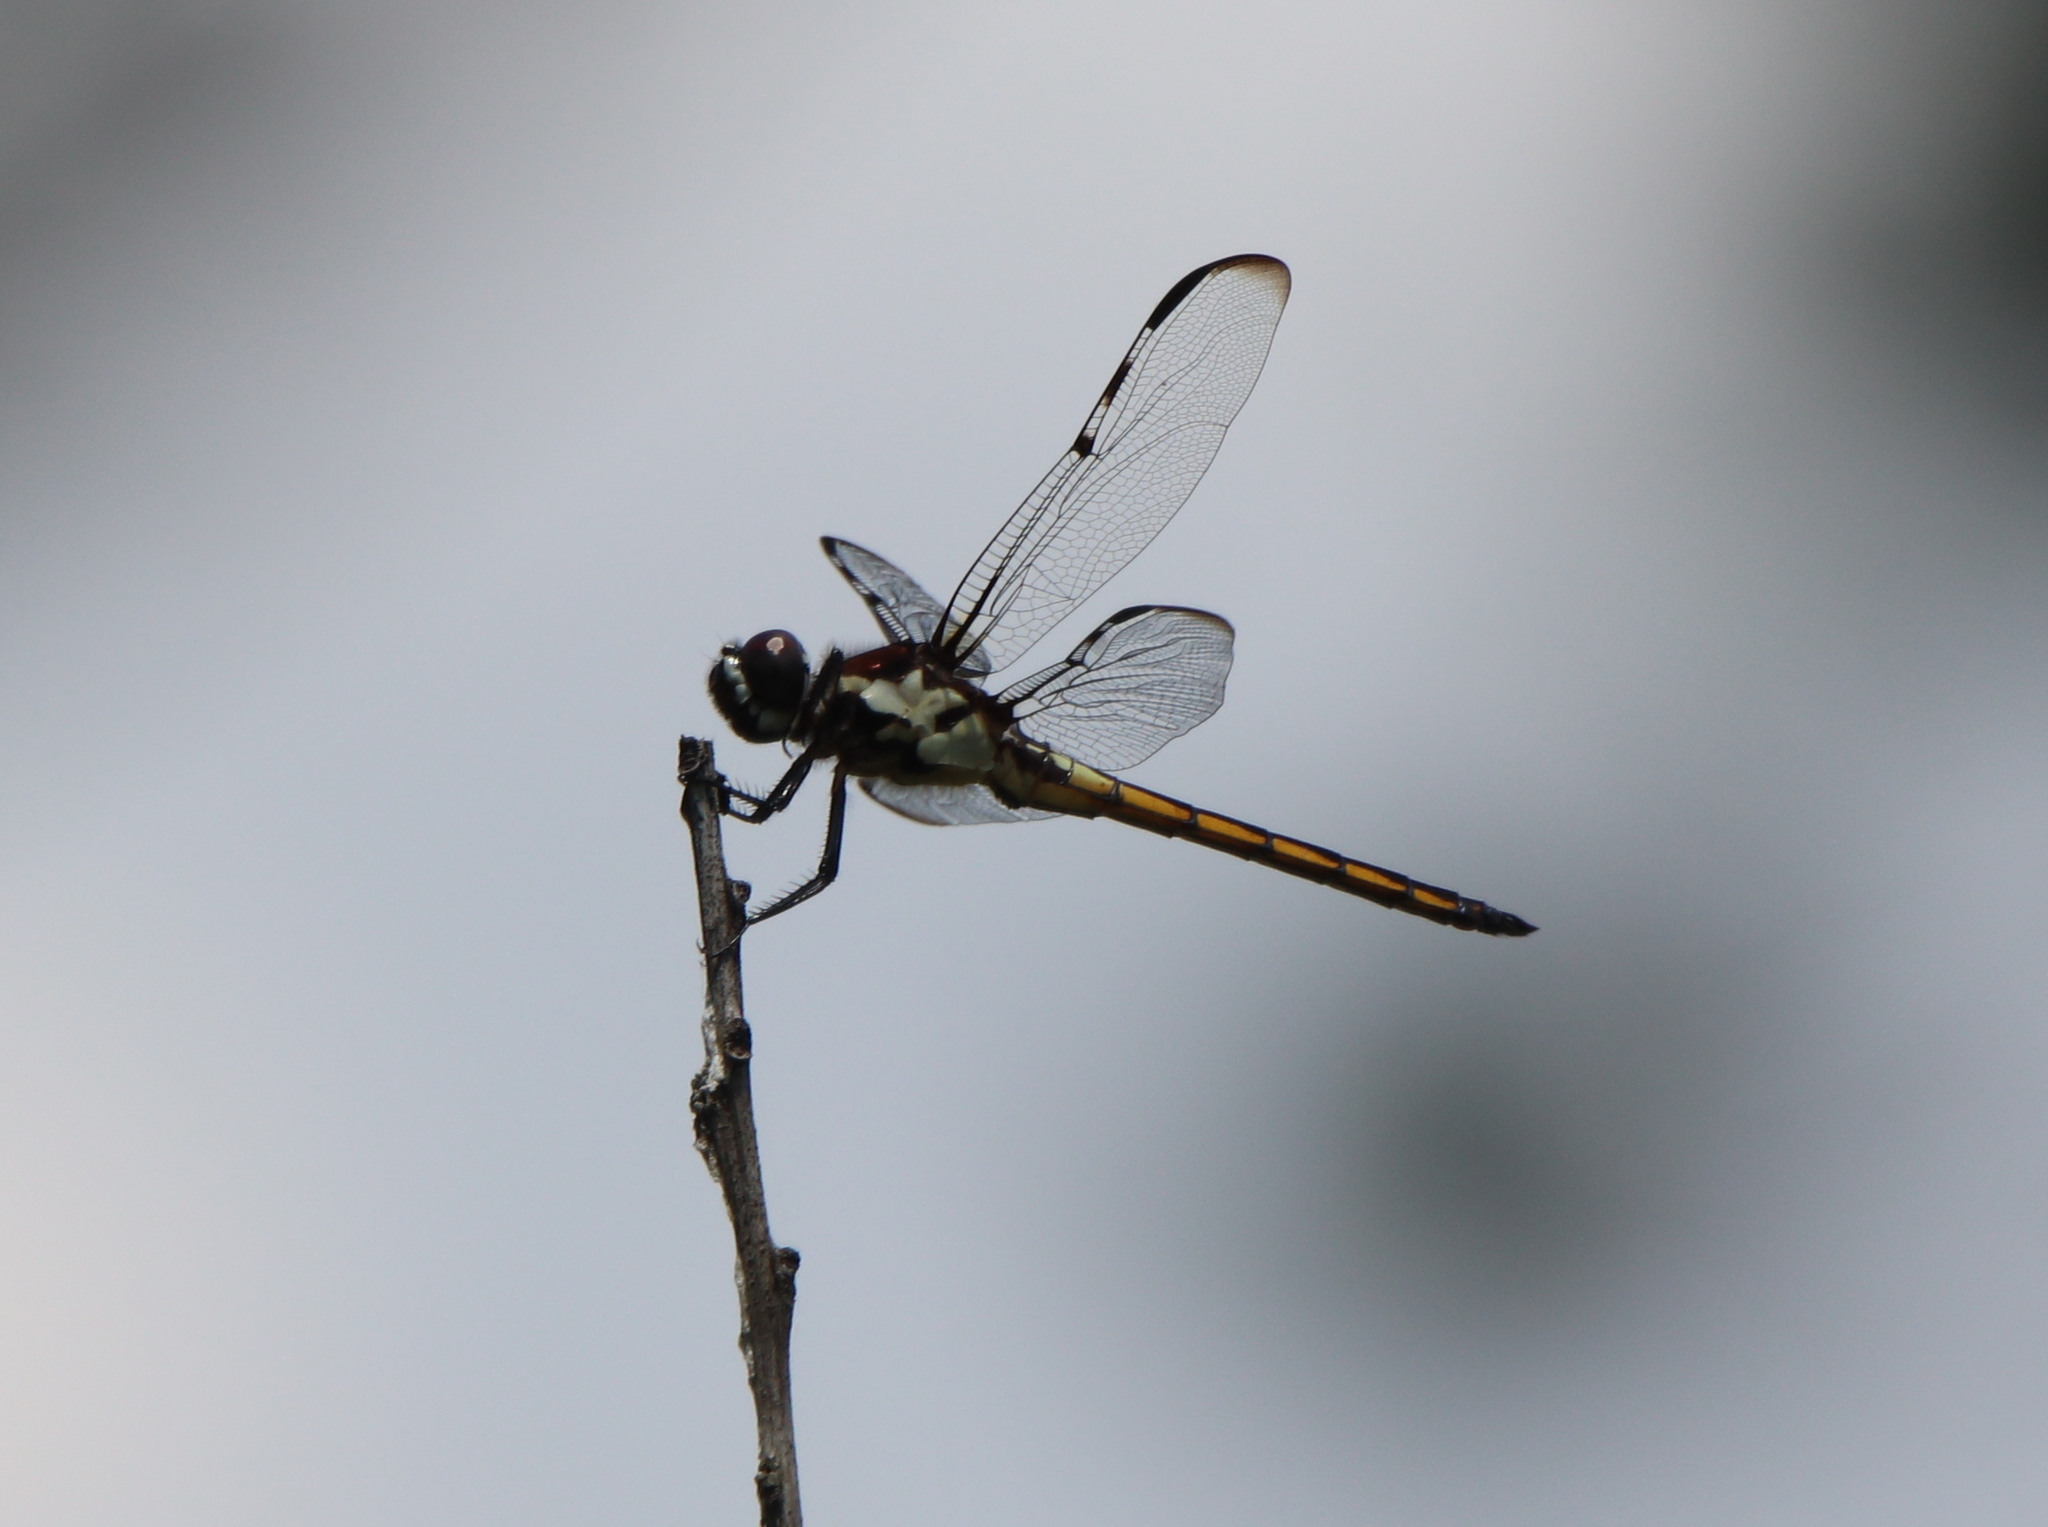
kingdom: Animalia
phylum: Arthropoda
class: Insecta
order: Odonata
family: Libellulidae
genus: Libellula
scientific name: Libellula axilena
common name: Bar-winged skimmer
